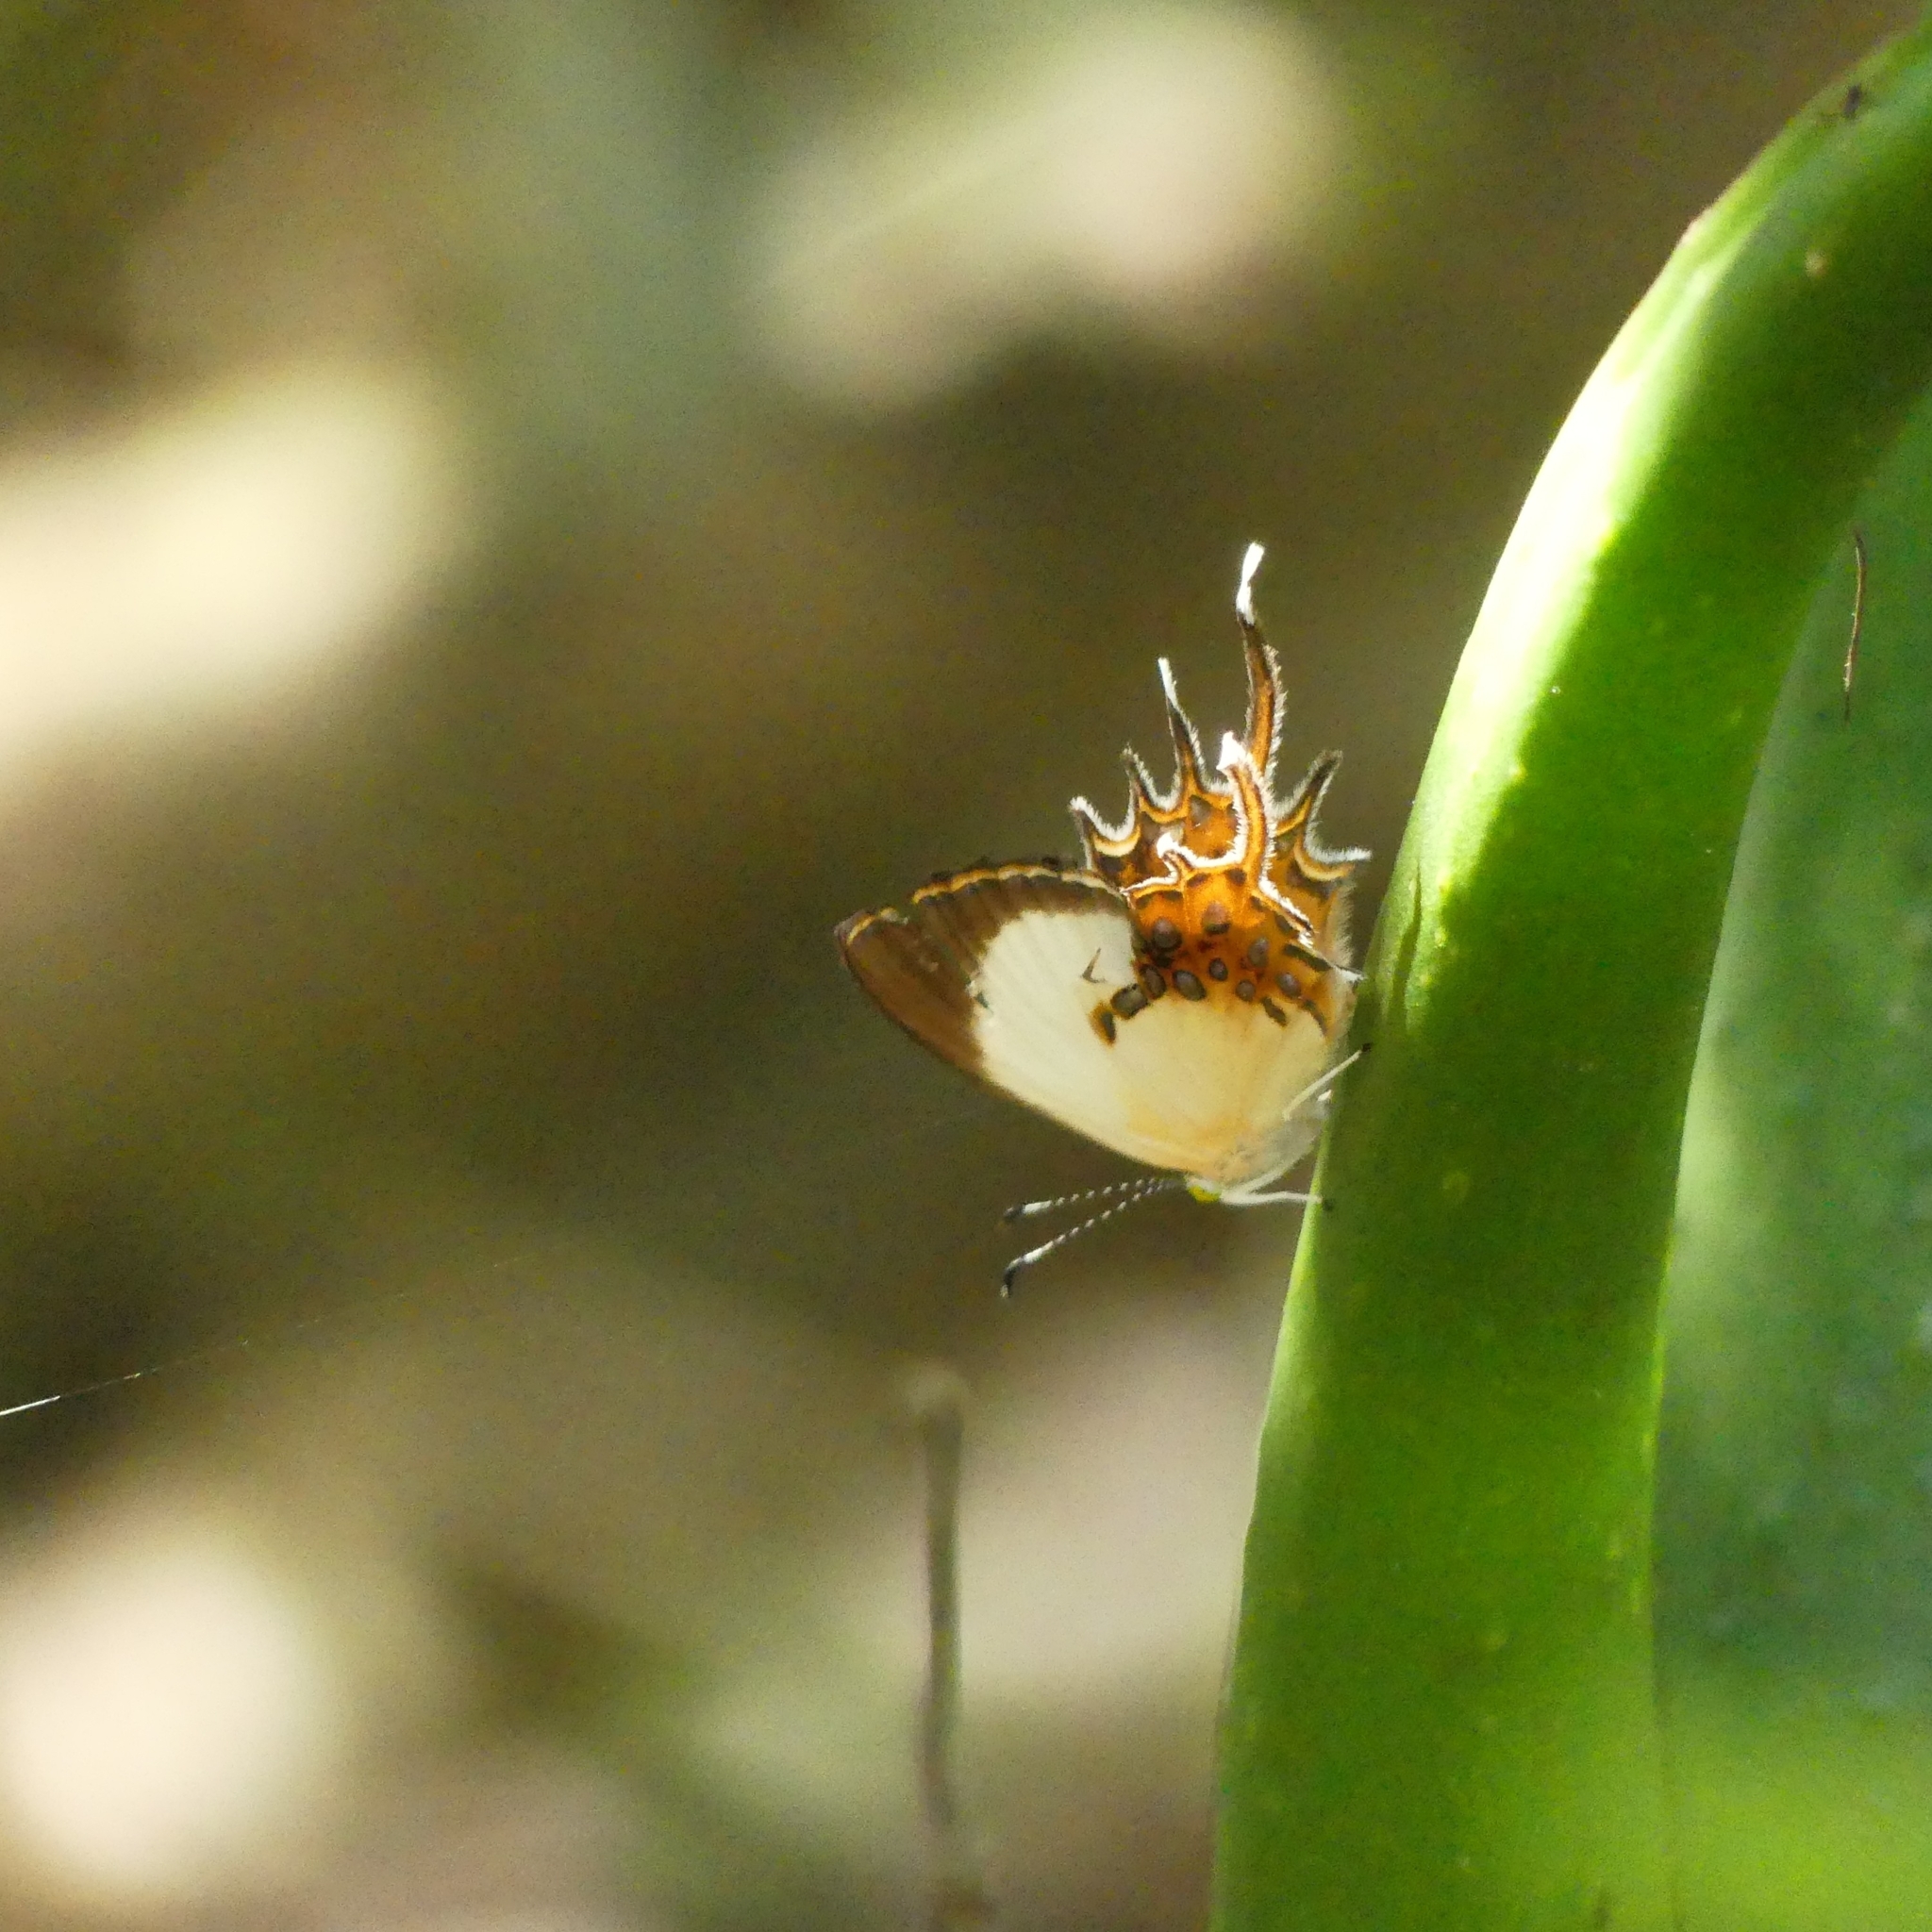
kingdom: Animalia
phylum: Arthropoda
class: Insecta
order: Lepidoptera
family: Riodinidae
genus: Helicopis
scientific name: Helicopis cupido
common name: Spangled cupid
